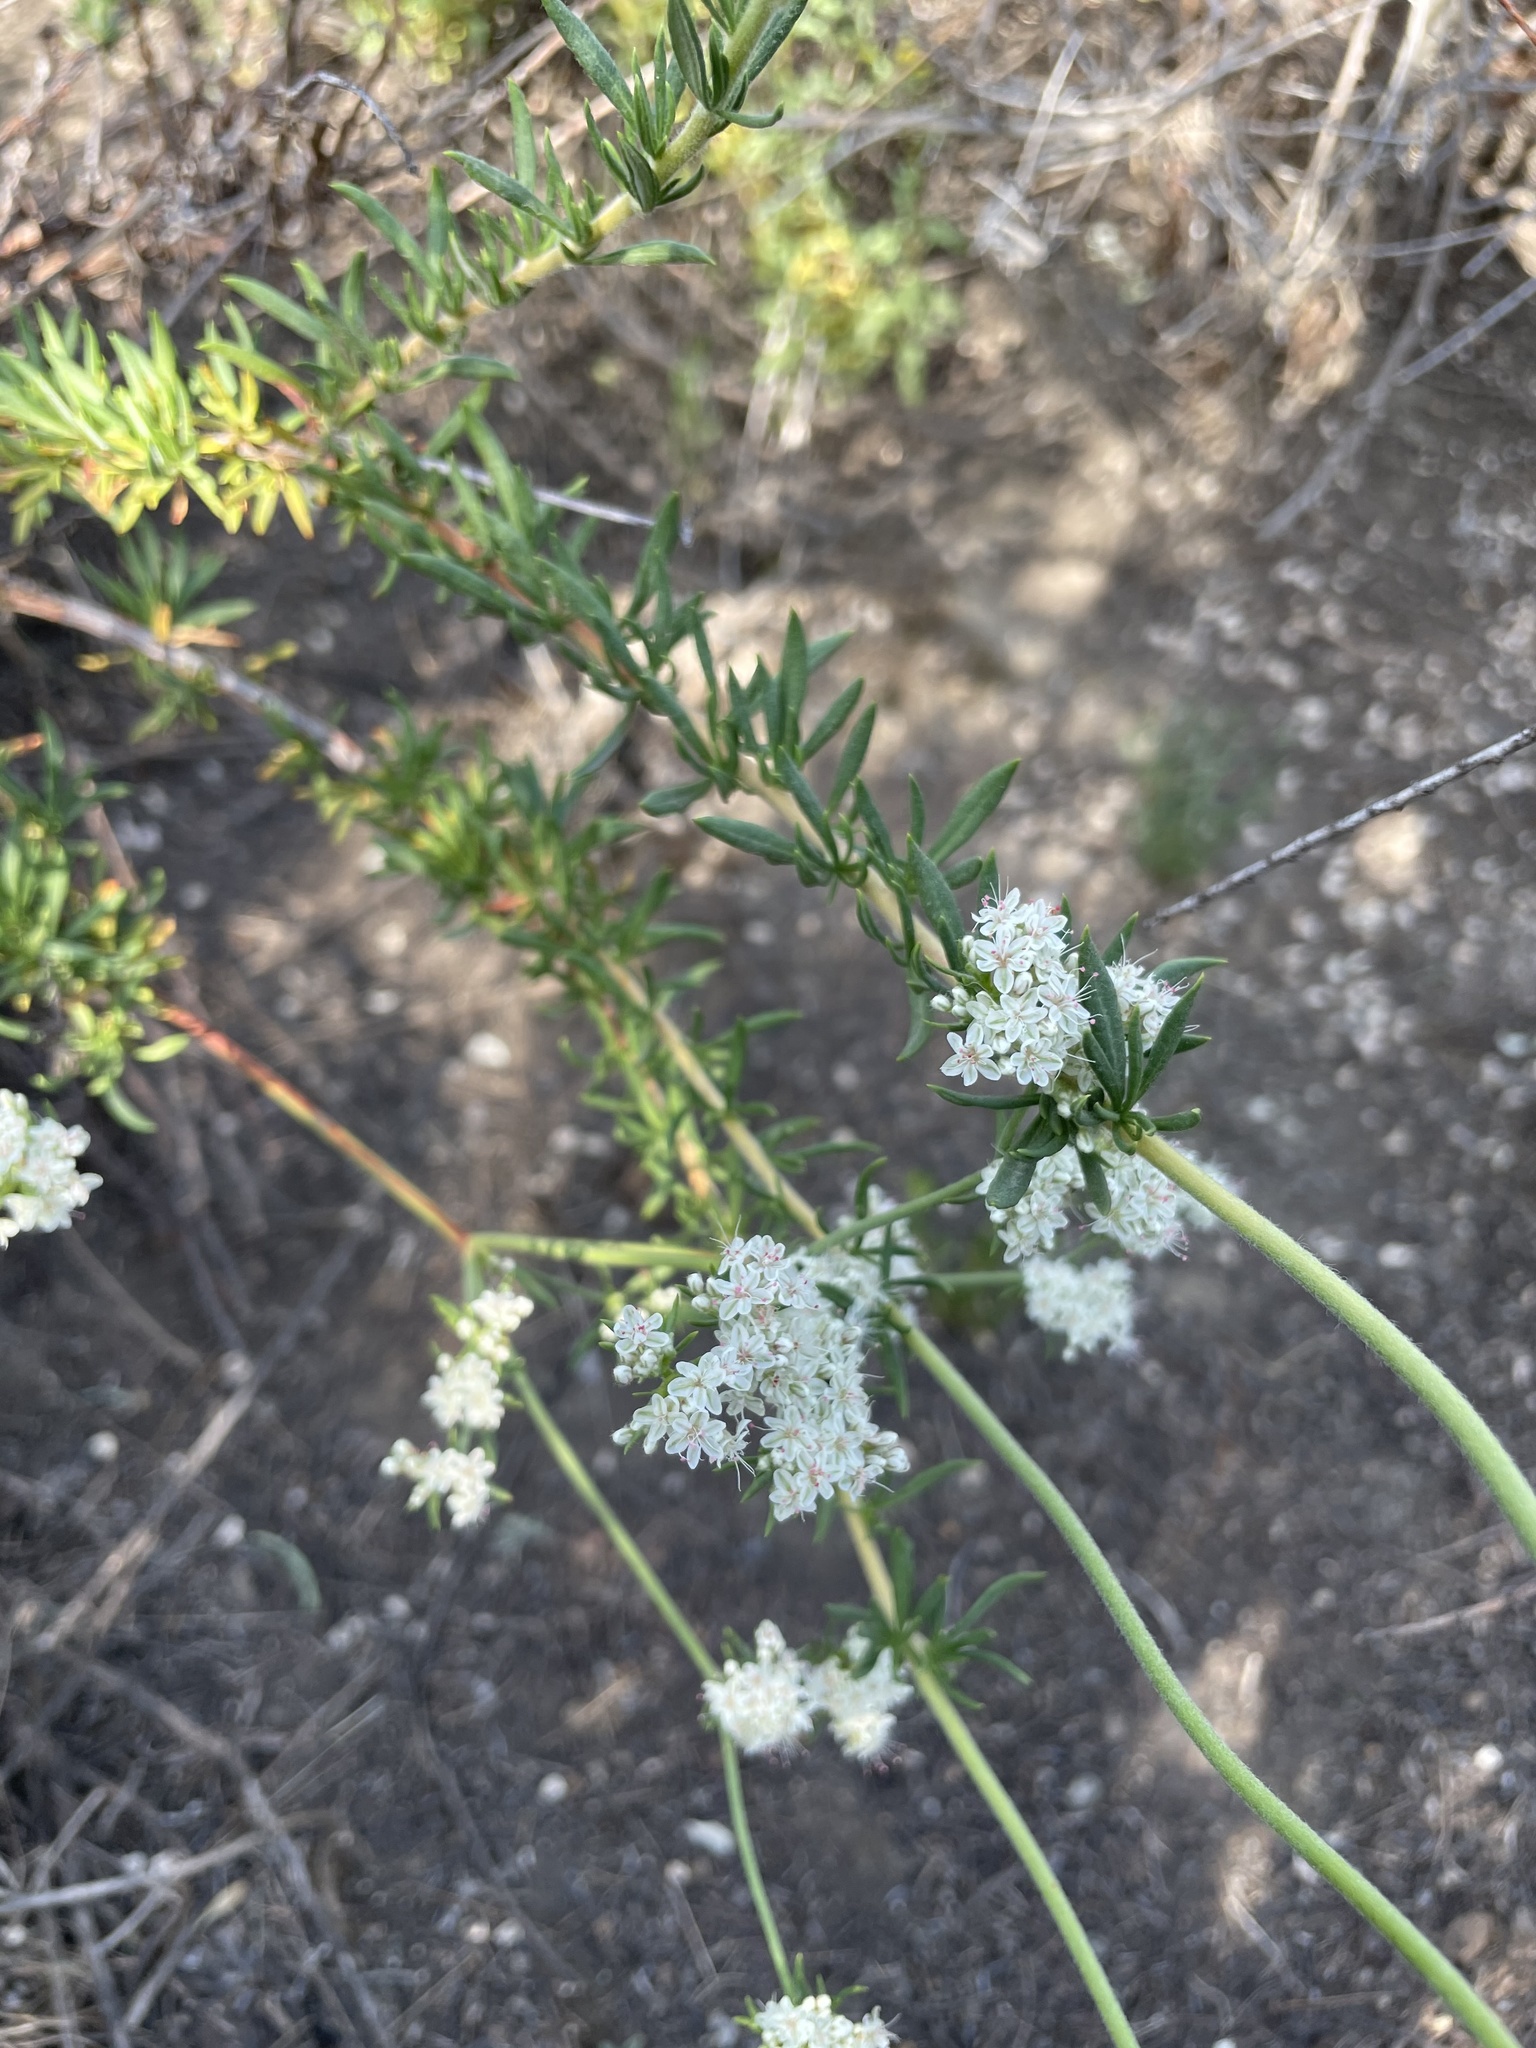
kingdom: Plantae
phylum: Tracheophyta
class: Magnoliopsida
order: Caryophyllales
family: Polygonaceae
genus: Eriogonum
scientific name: Eriogonum fasciculatum
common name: California wild buckwheat
